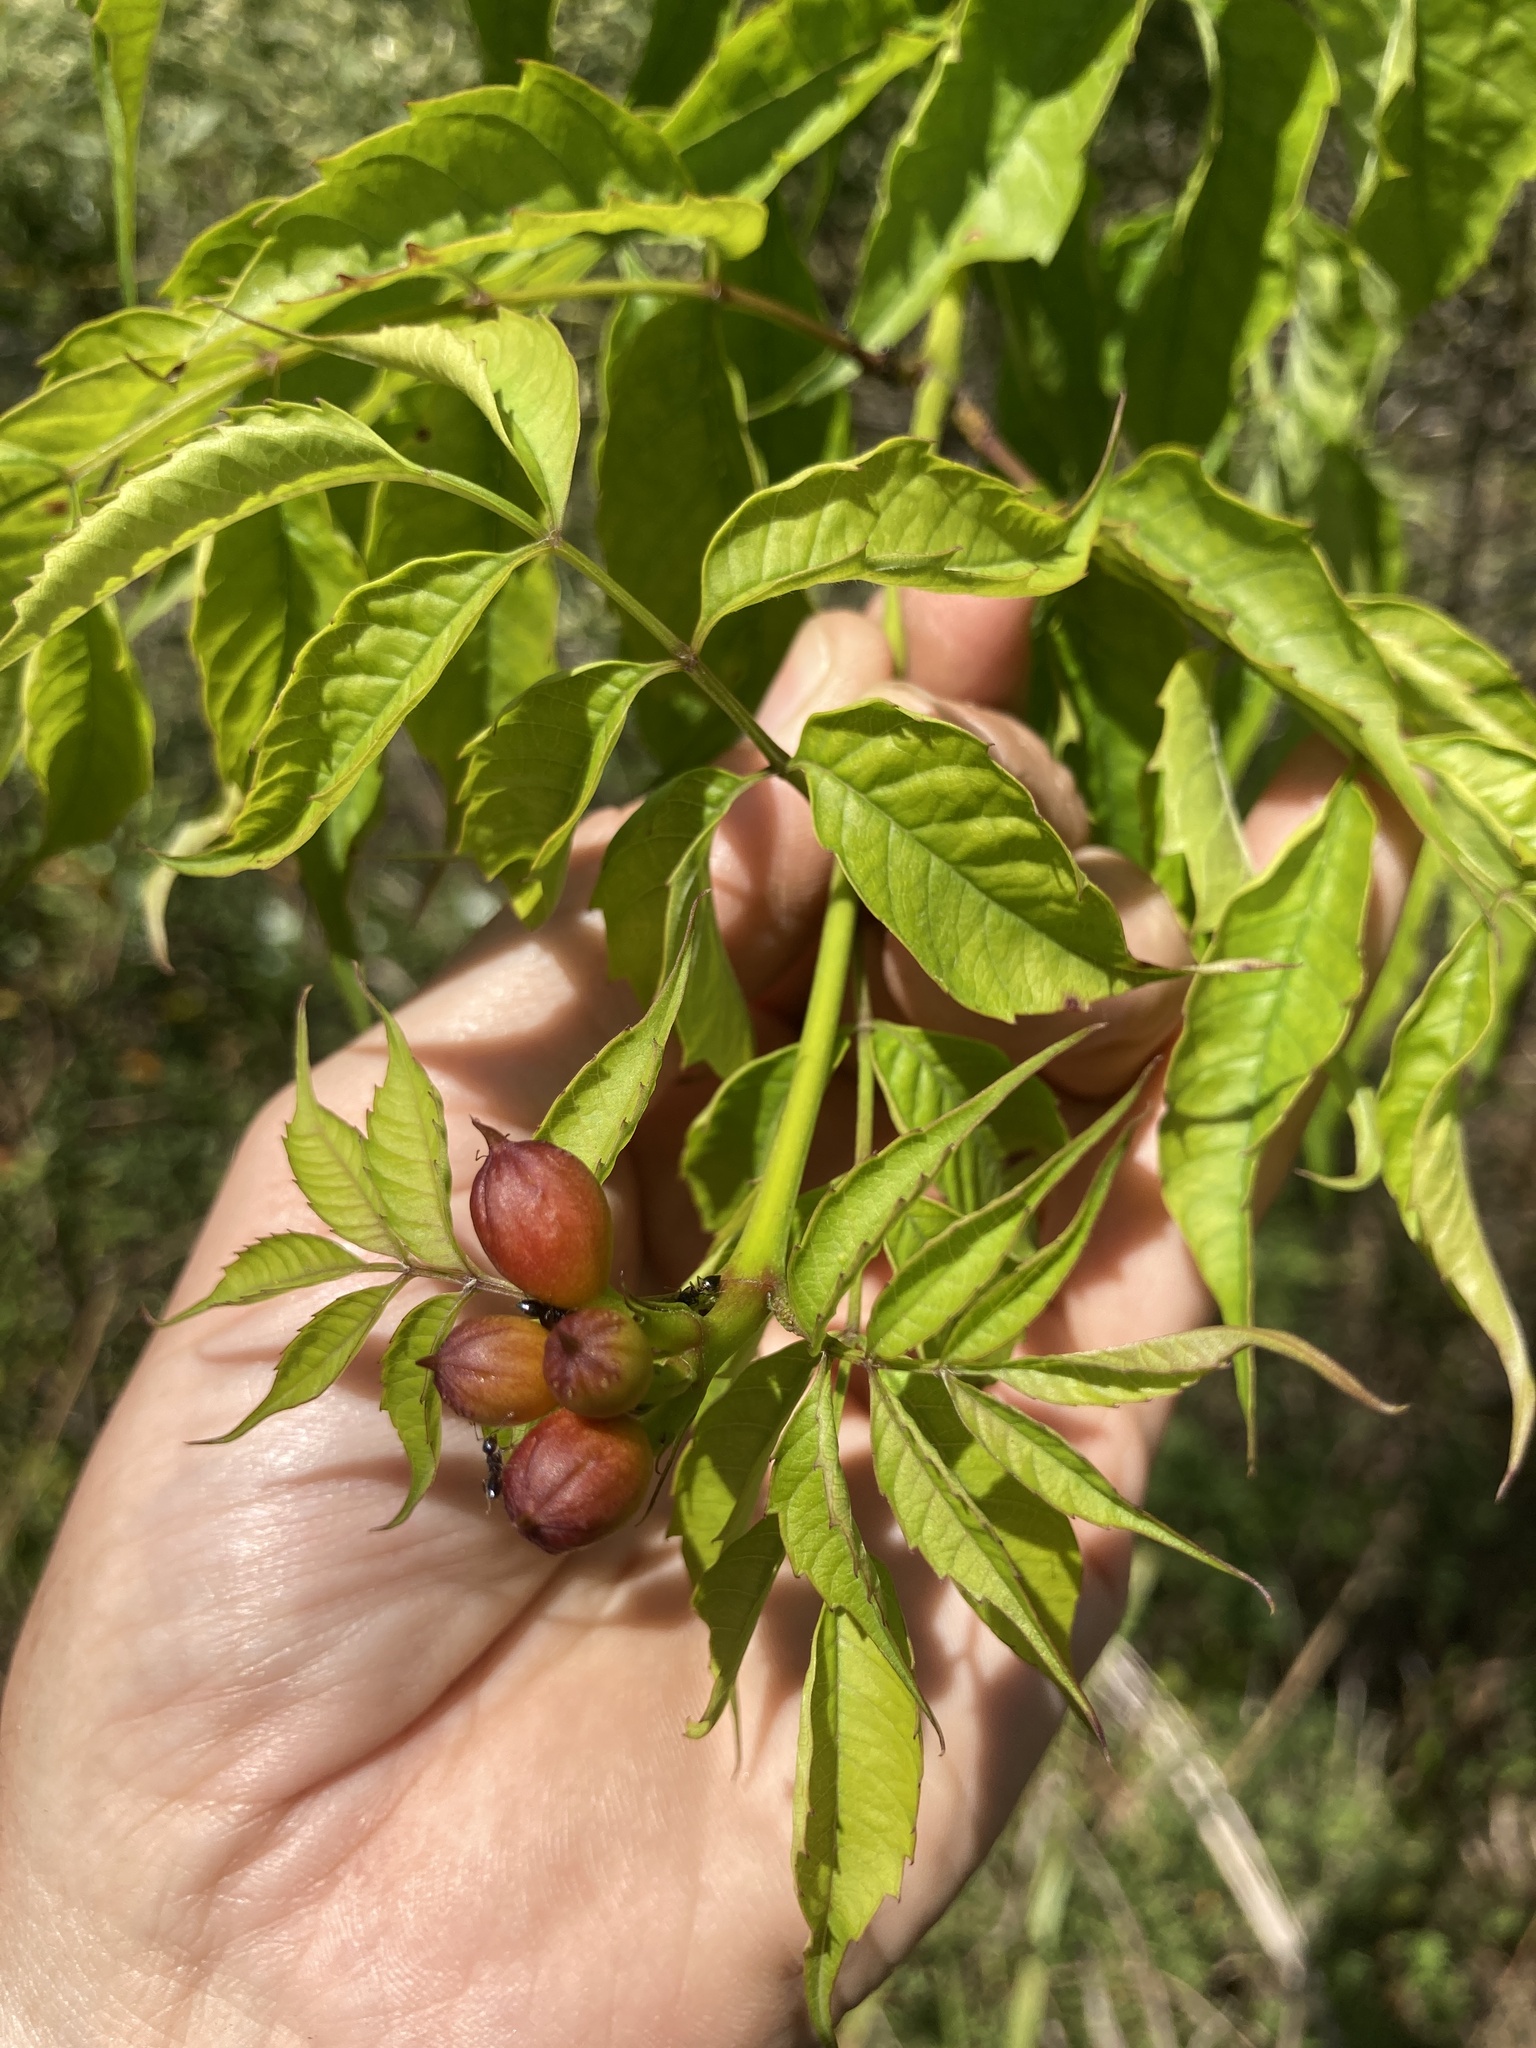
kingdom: Plantae
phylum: Tracheophyta
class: Magnoliopsida
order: Lamiales
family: Bignoniaceae
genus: Campsis
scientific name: Campsis radicans
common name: Trumpet-creeper
